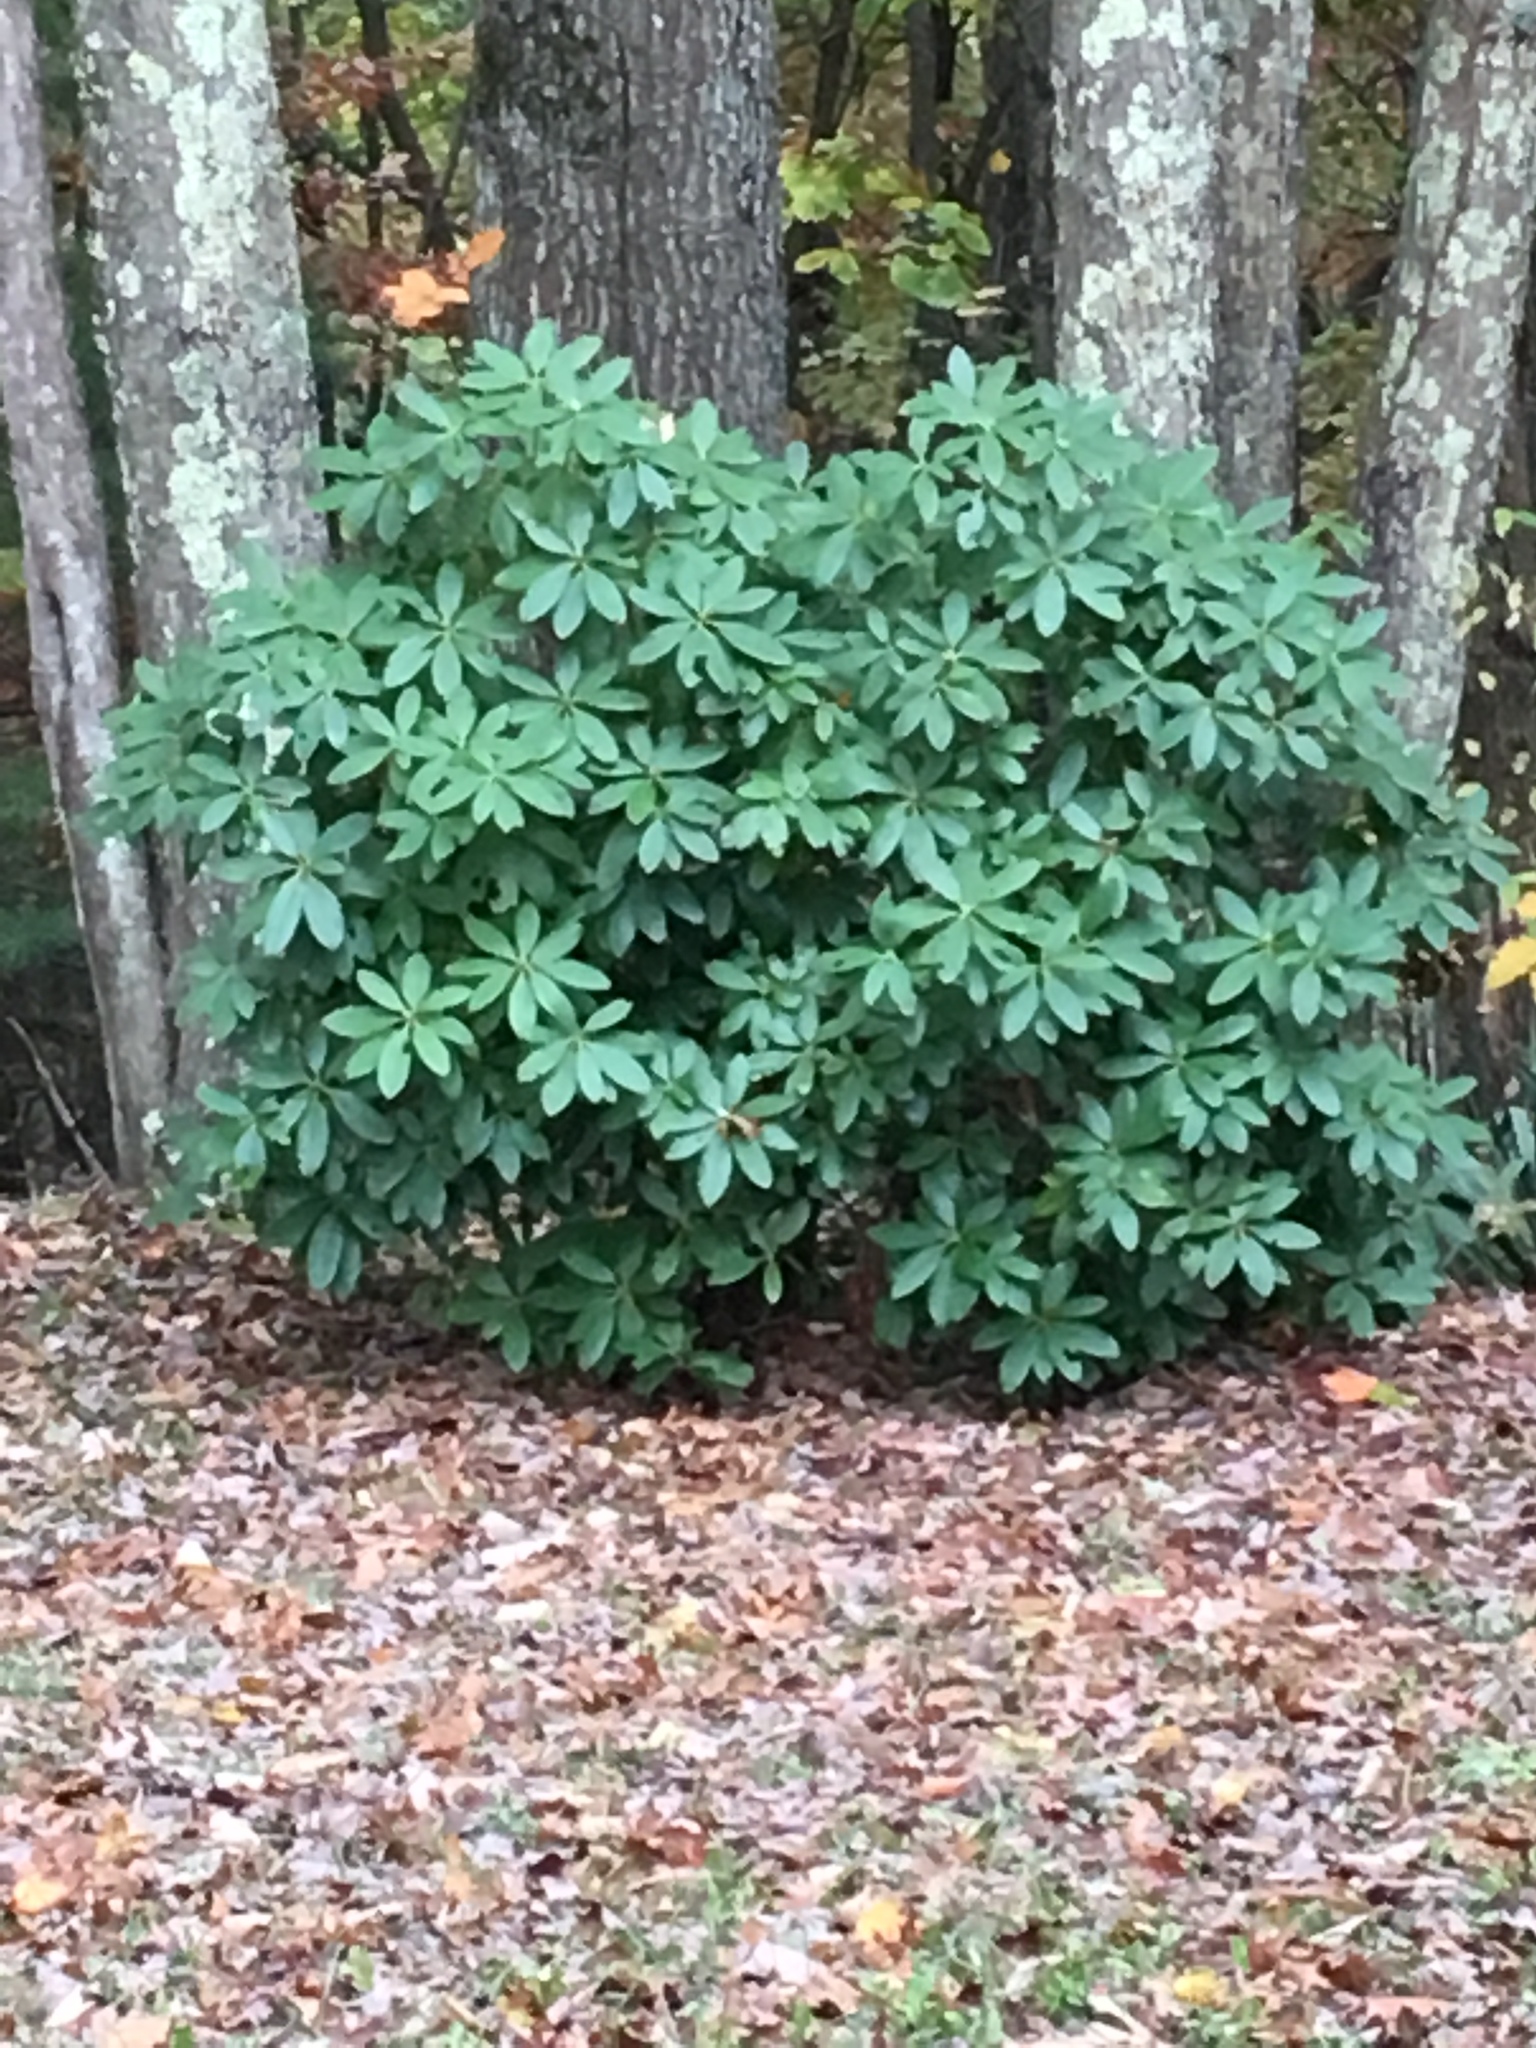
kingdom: Plantae
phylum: Tracheophyta
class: Magnoliopsida
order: Ericales
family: Ericaceae
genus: Rhododendron
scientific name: Rhododendron maximum
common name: Great rhododendron
